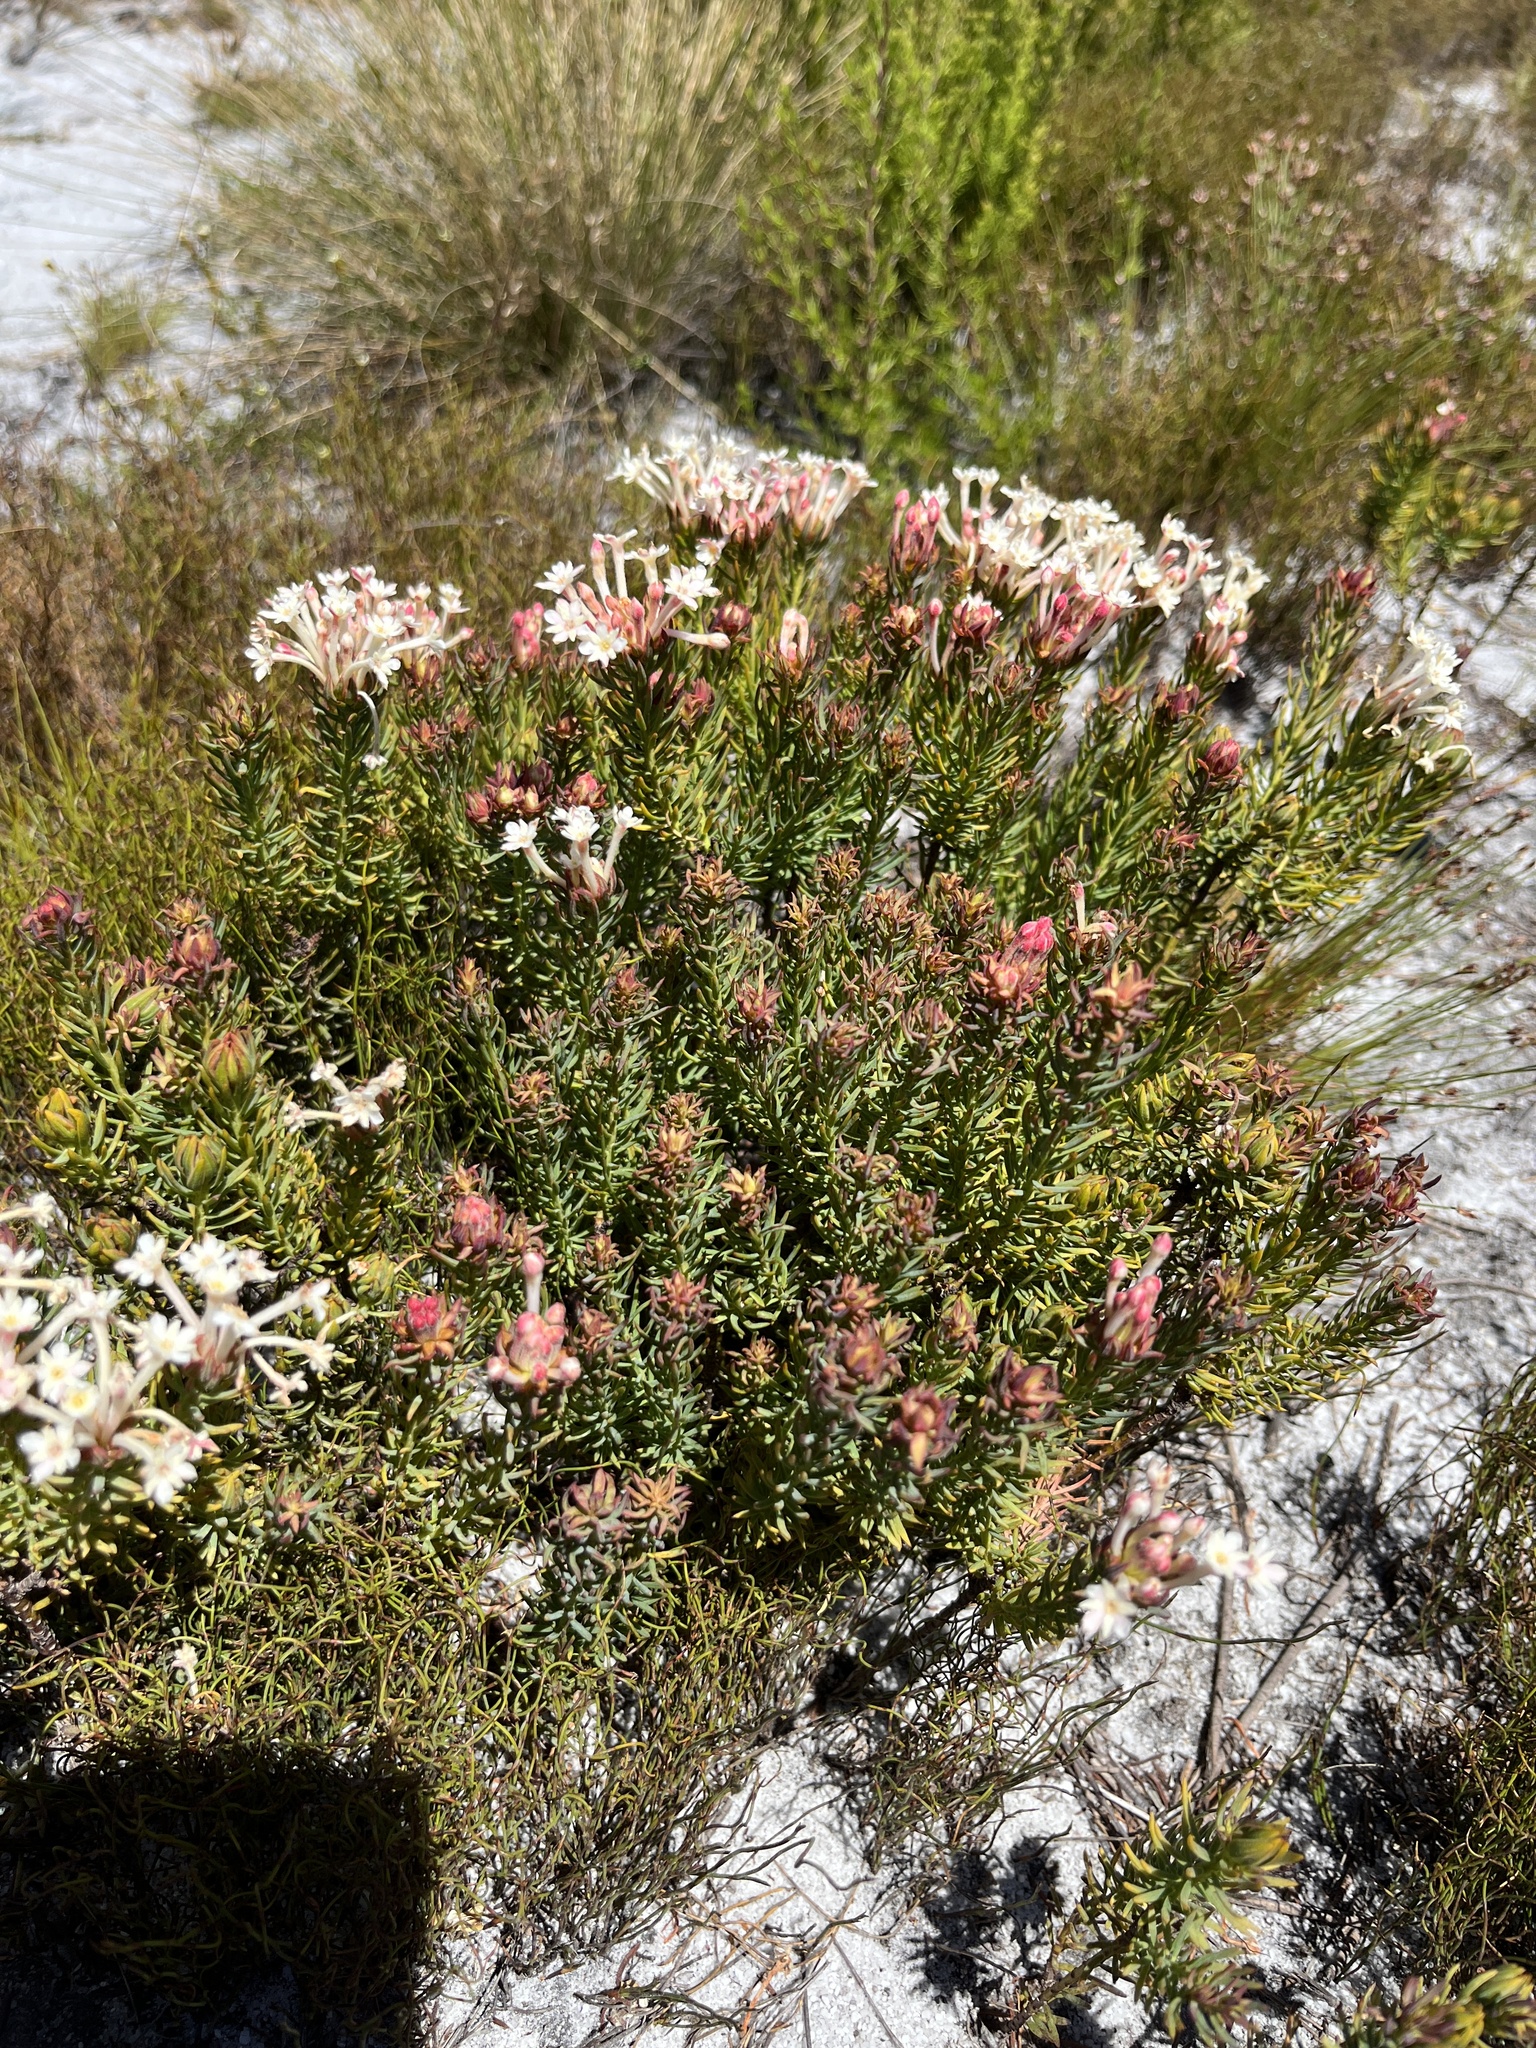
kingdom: Plantae
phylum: Tracheophyta
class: Magnoliopsida
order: Malvales
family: Thymelaeaceae
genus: Gnidia
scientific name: Gnidia pinifolia
